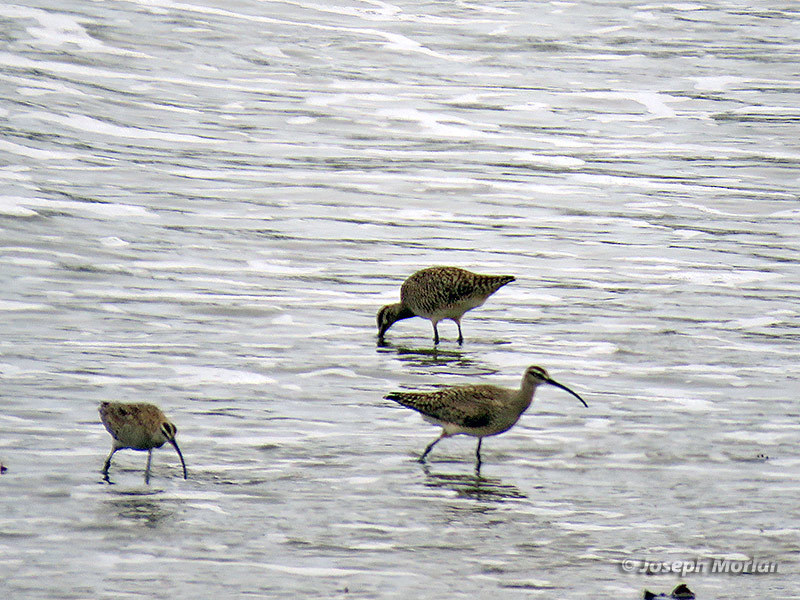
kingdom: Animalia
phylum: Chordata
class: Aves
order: Charadriiformes
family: Scolopacidae
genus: Numenius
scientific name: Numenius phaeopus
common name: Whimbrel
